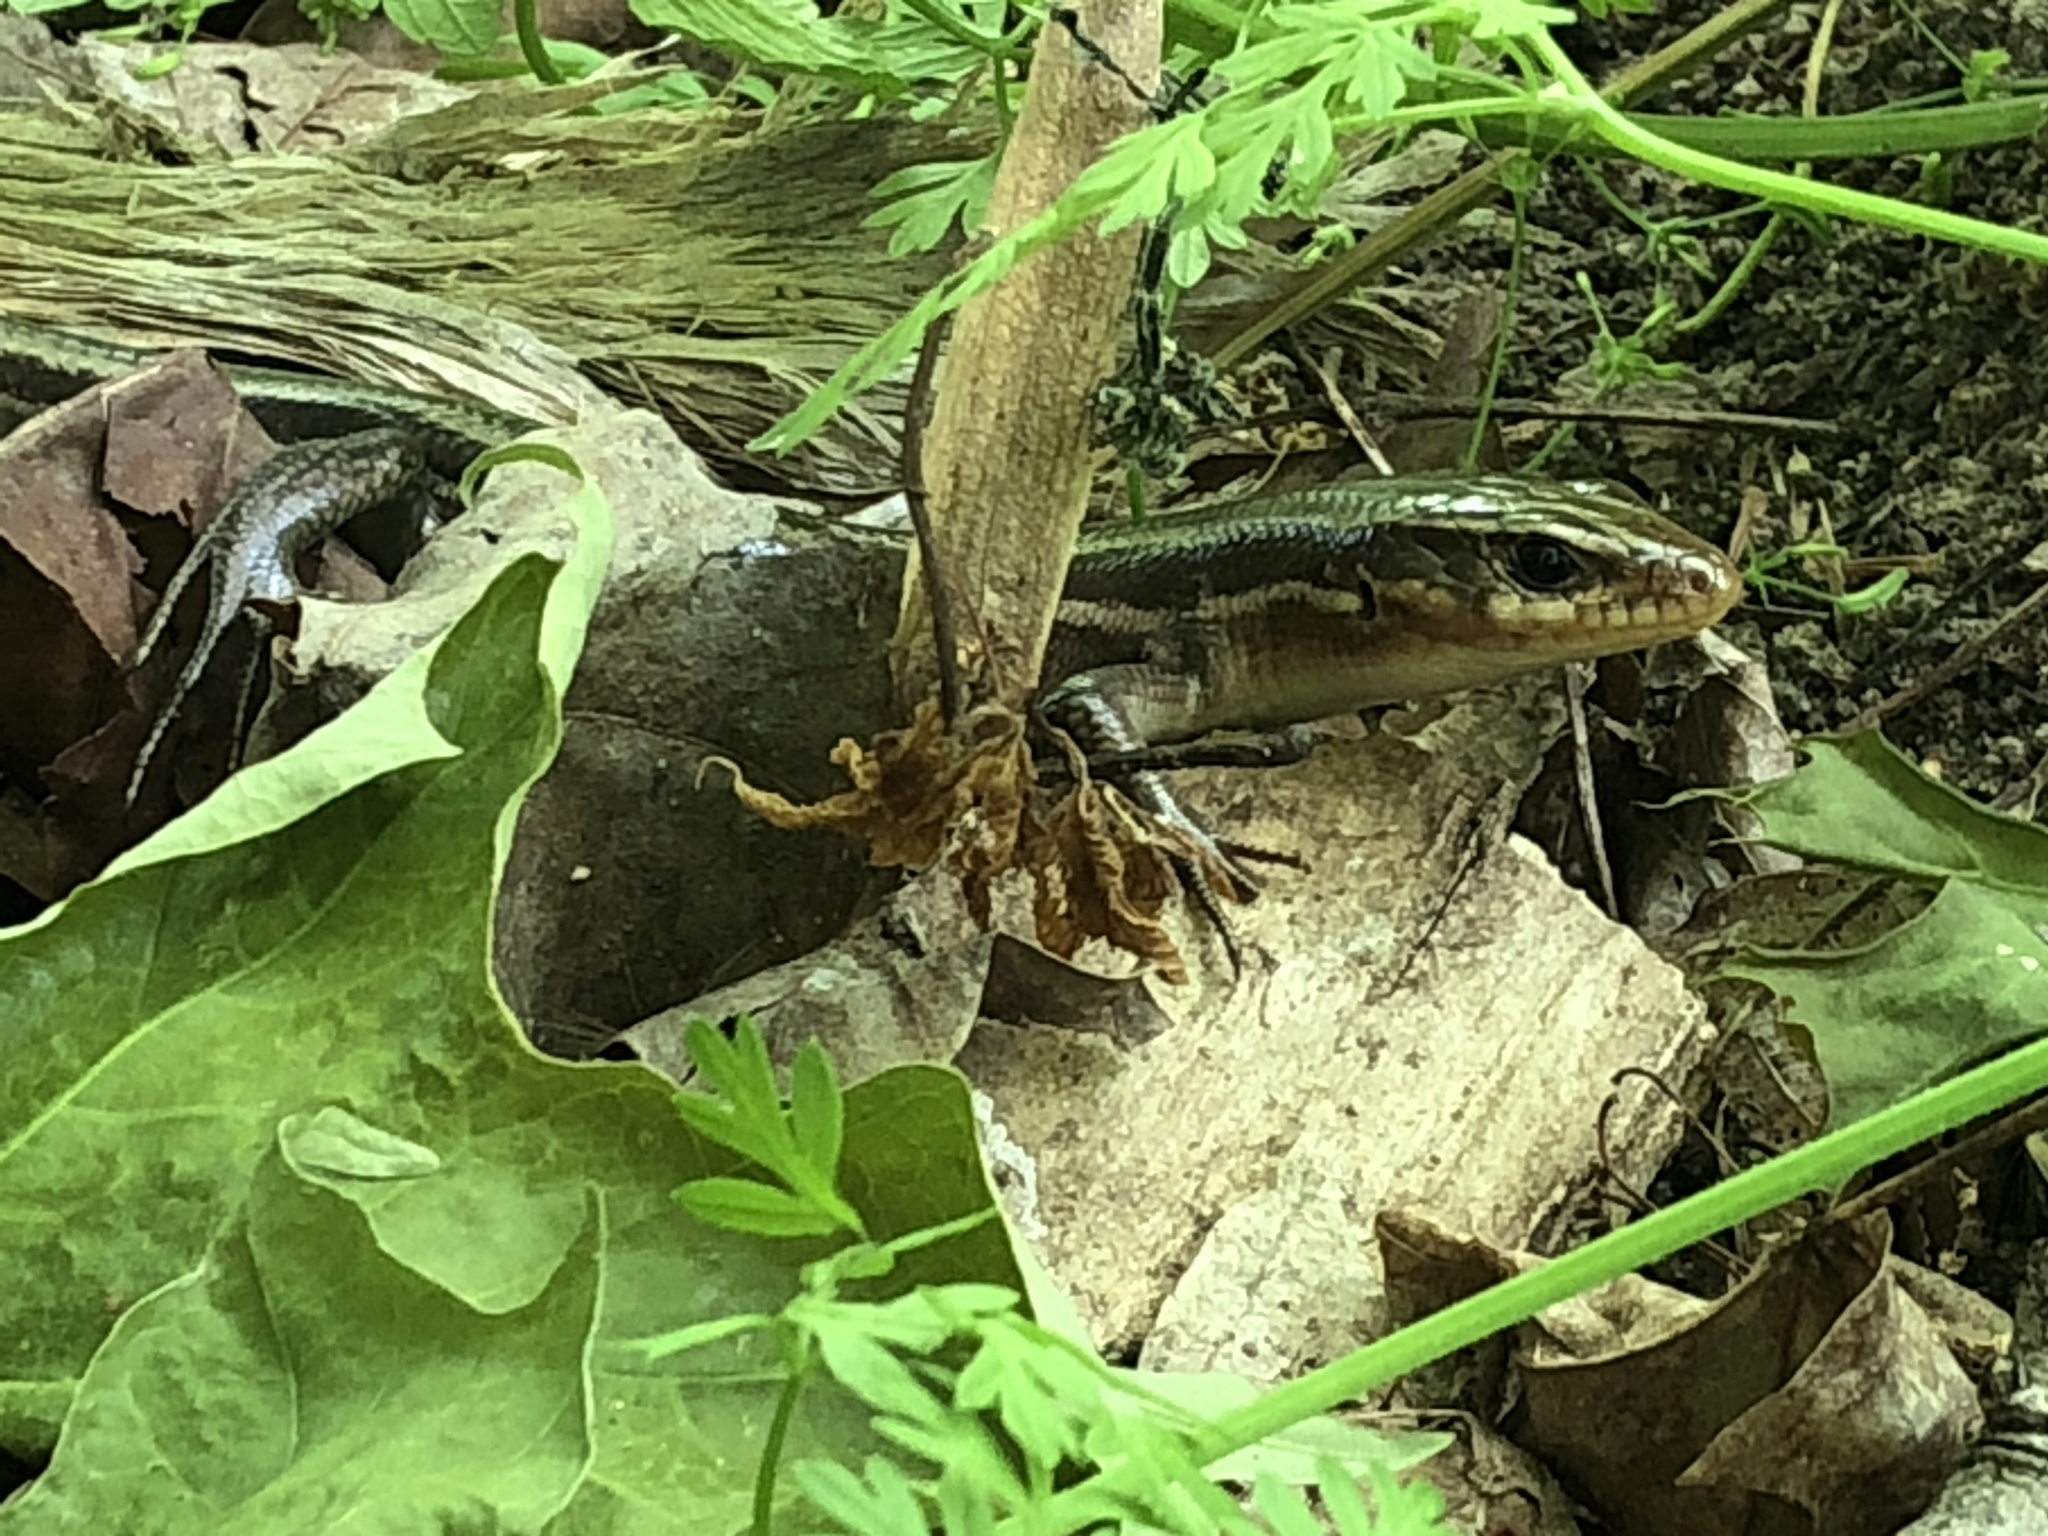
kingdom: Animalia
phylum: Chordata
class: Squamata
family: Scincidae
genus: Plestiodon
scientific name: Plestiodon laticeps
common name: Broadhead skink
